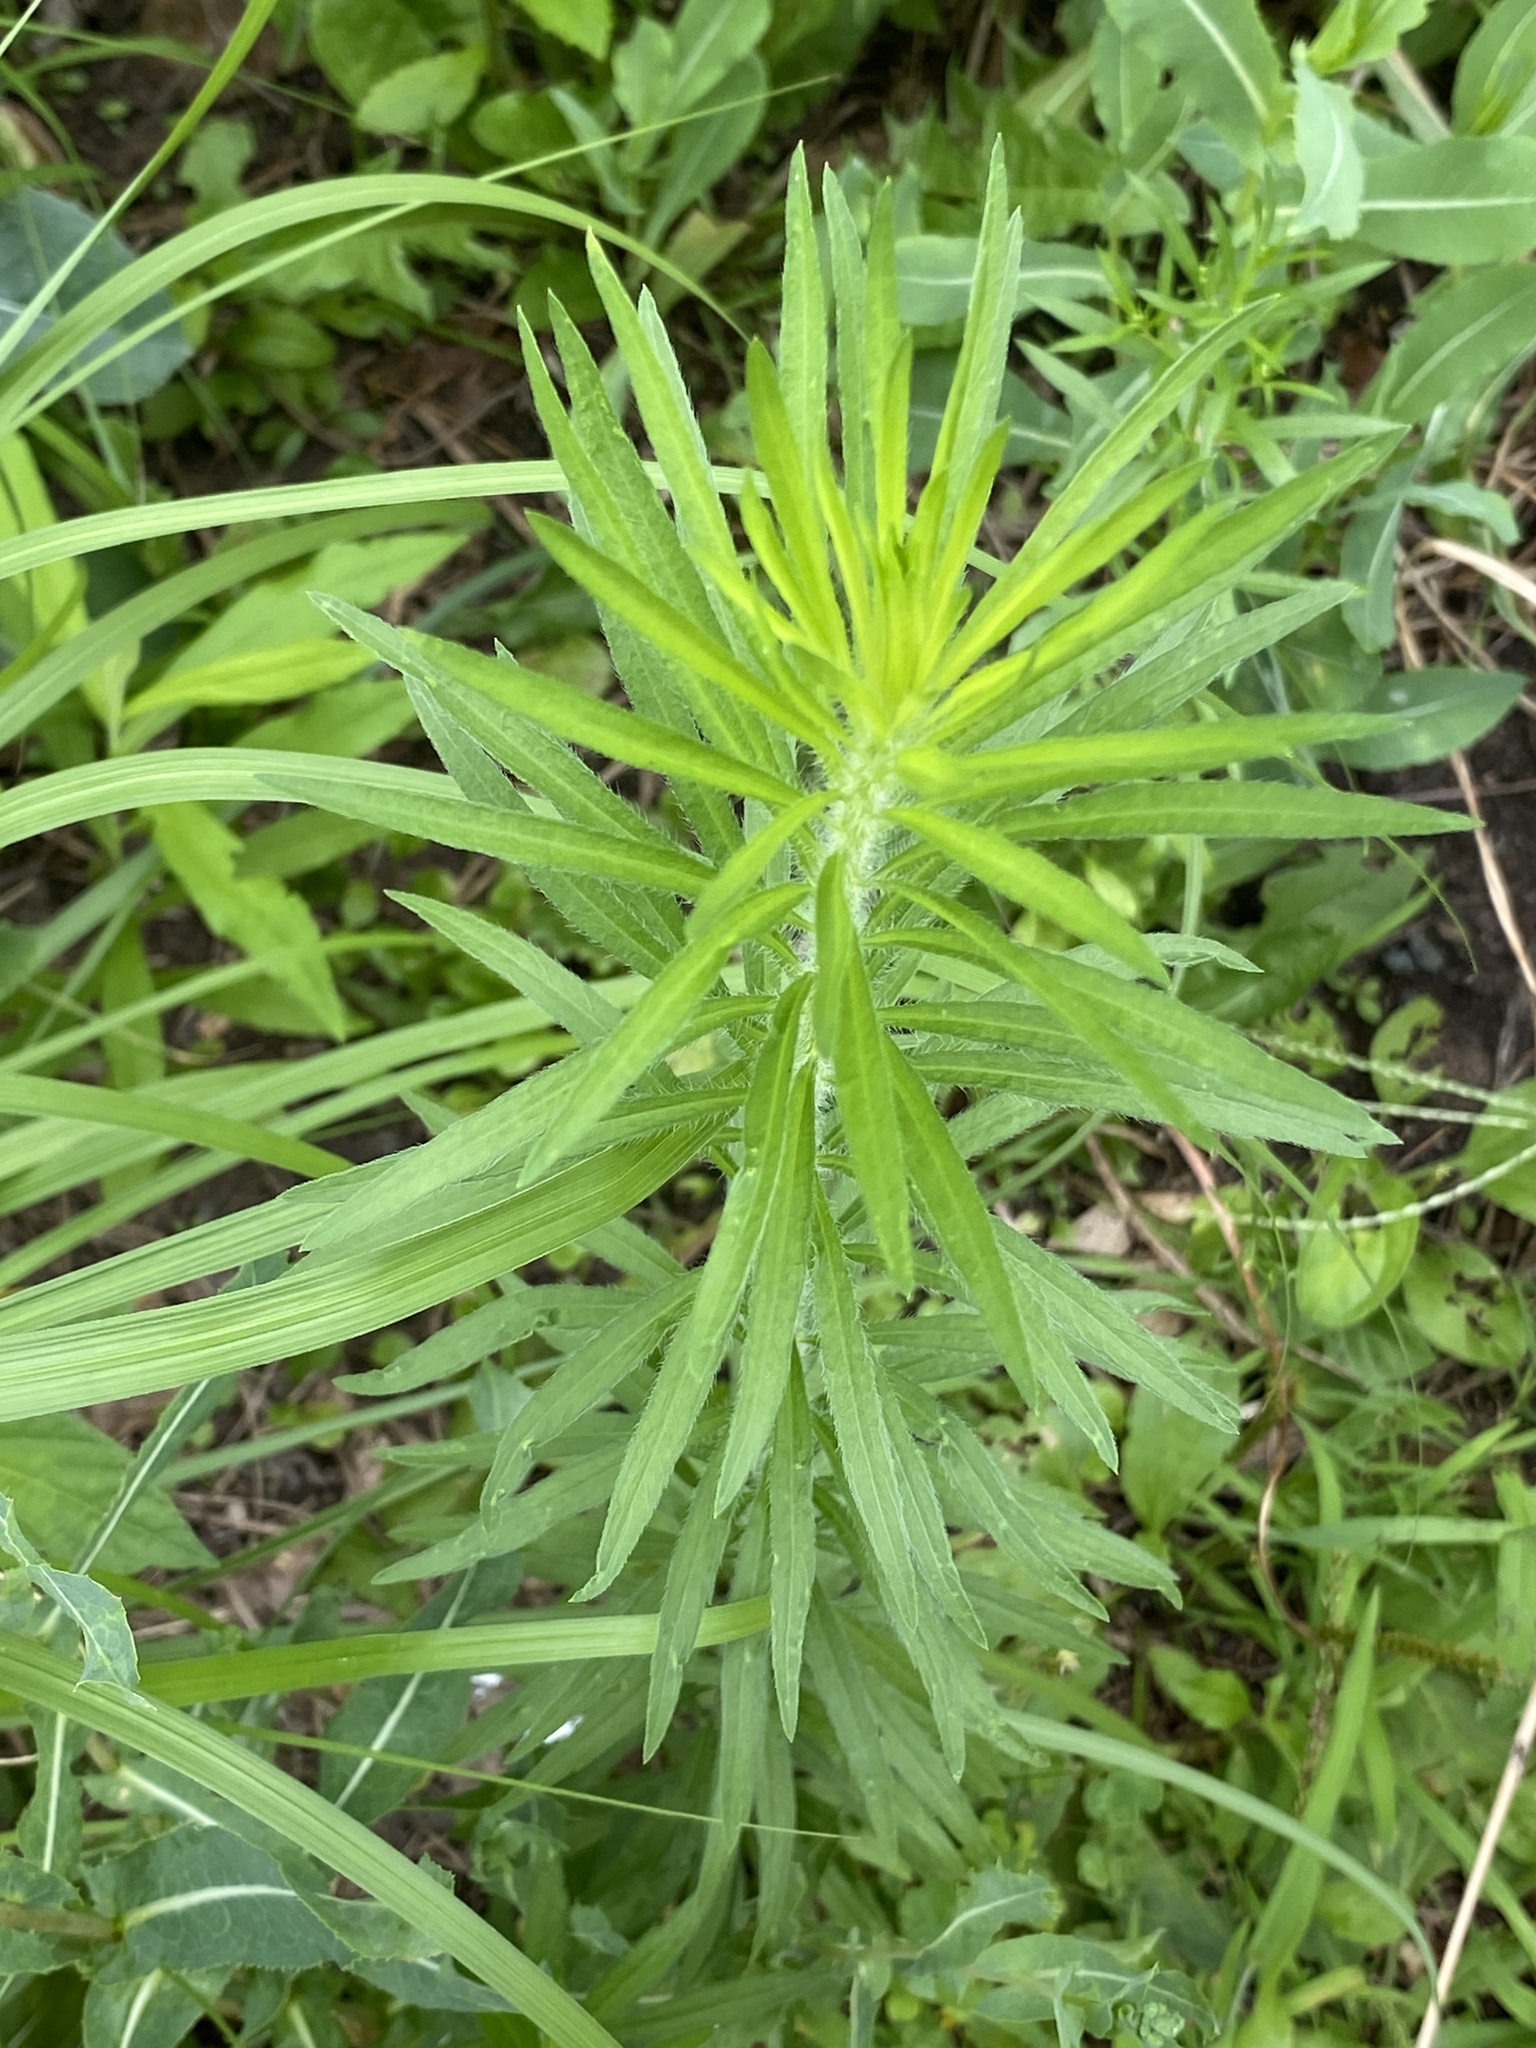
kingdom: Plantae
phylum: Tracheophyta
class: Magnoliopsida
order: Asterales
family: Asteraceae
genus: Erigeron
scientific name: Erigeron canadensis
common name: Canadian fleabane
